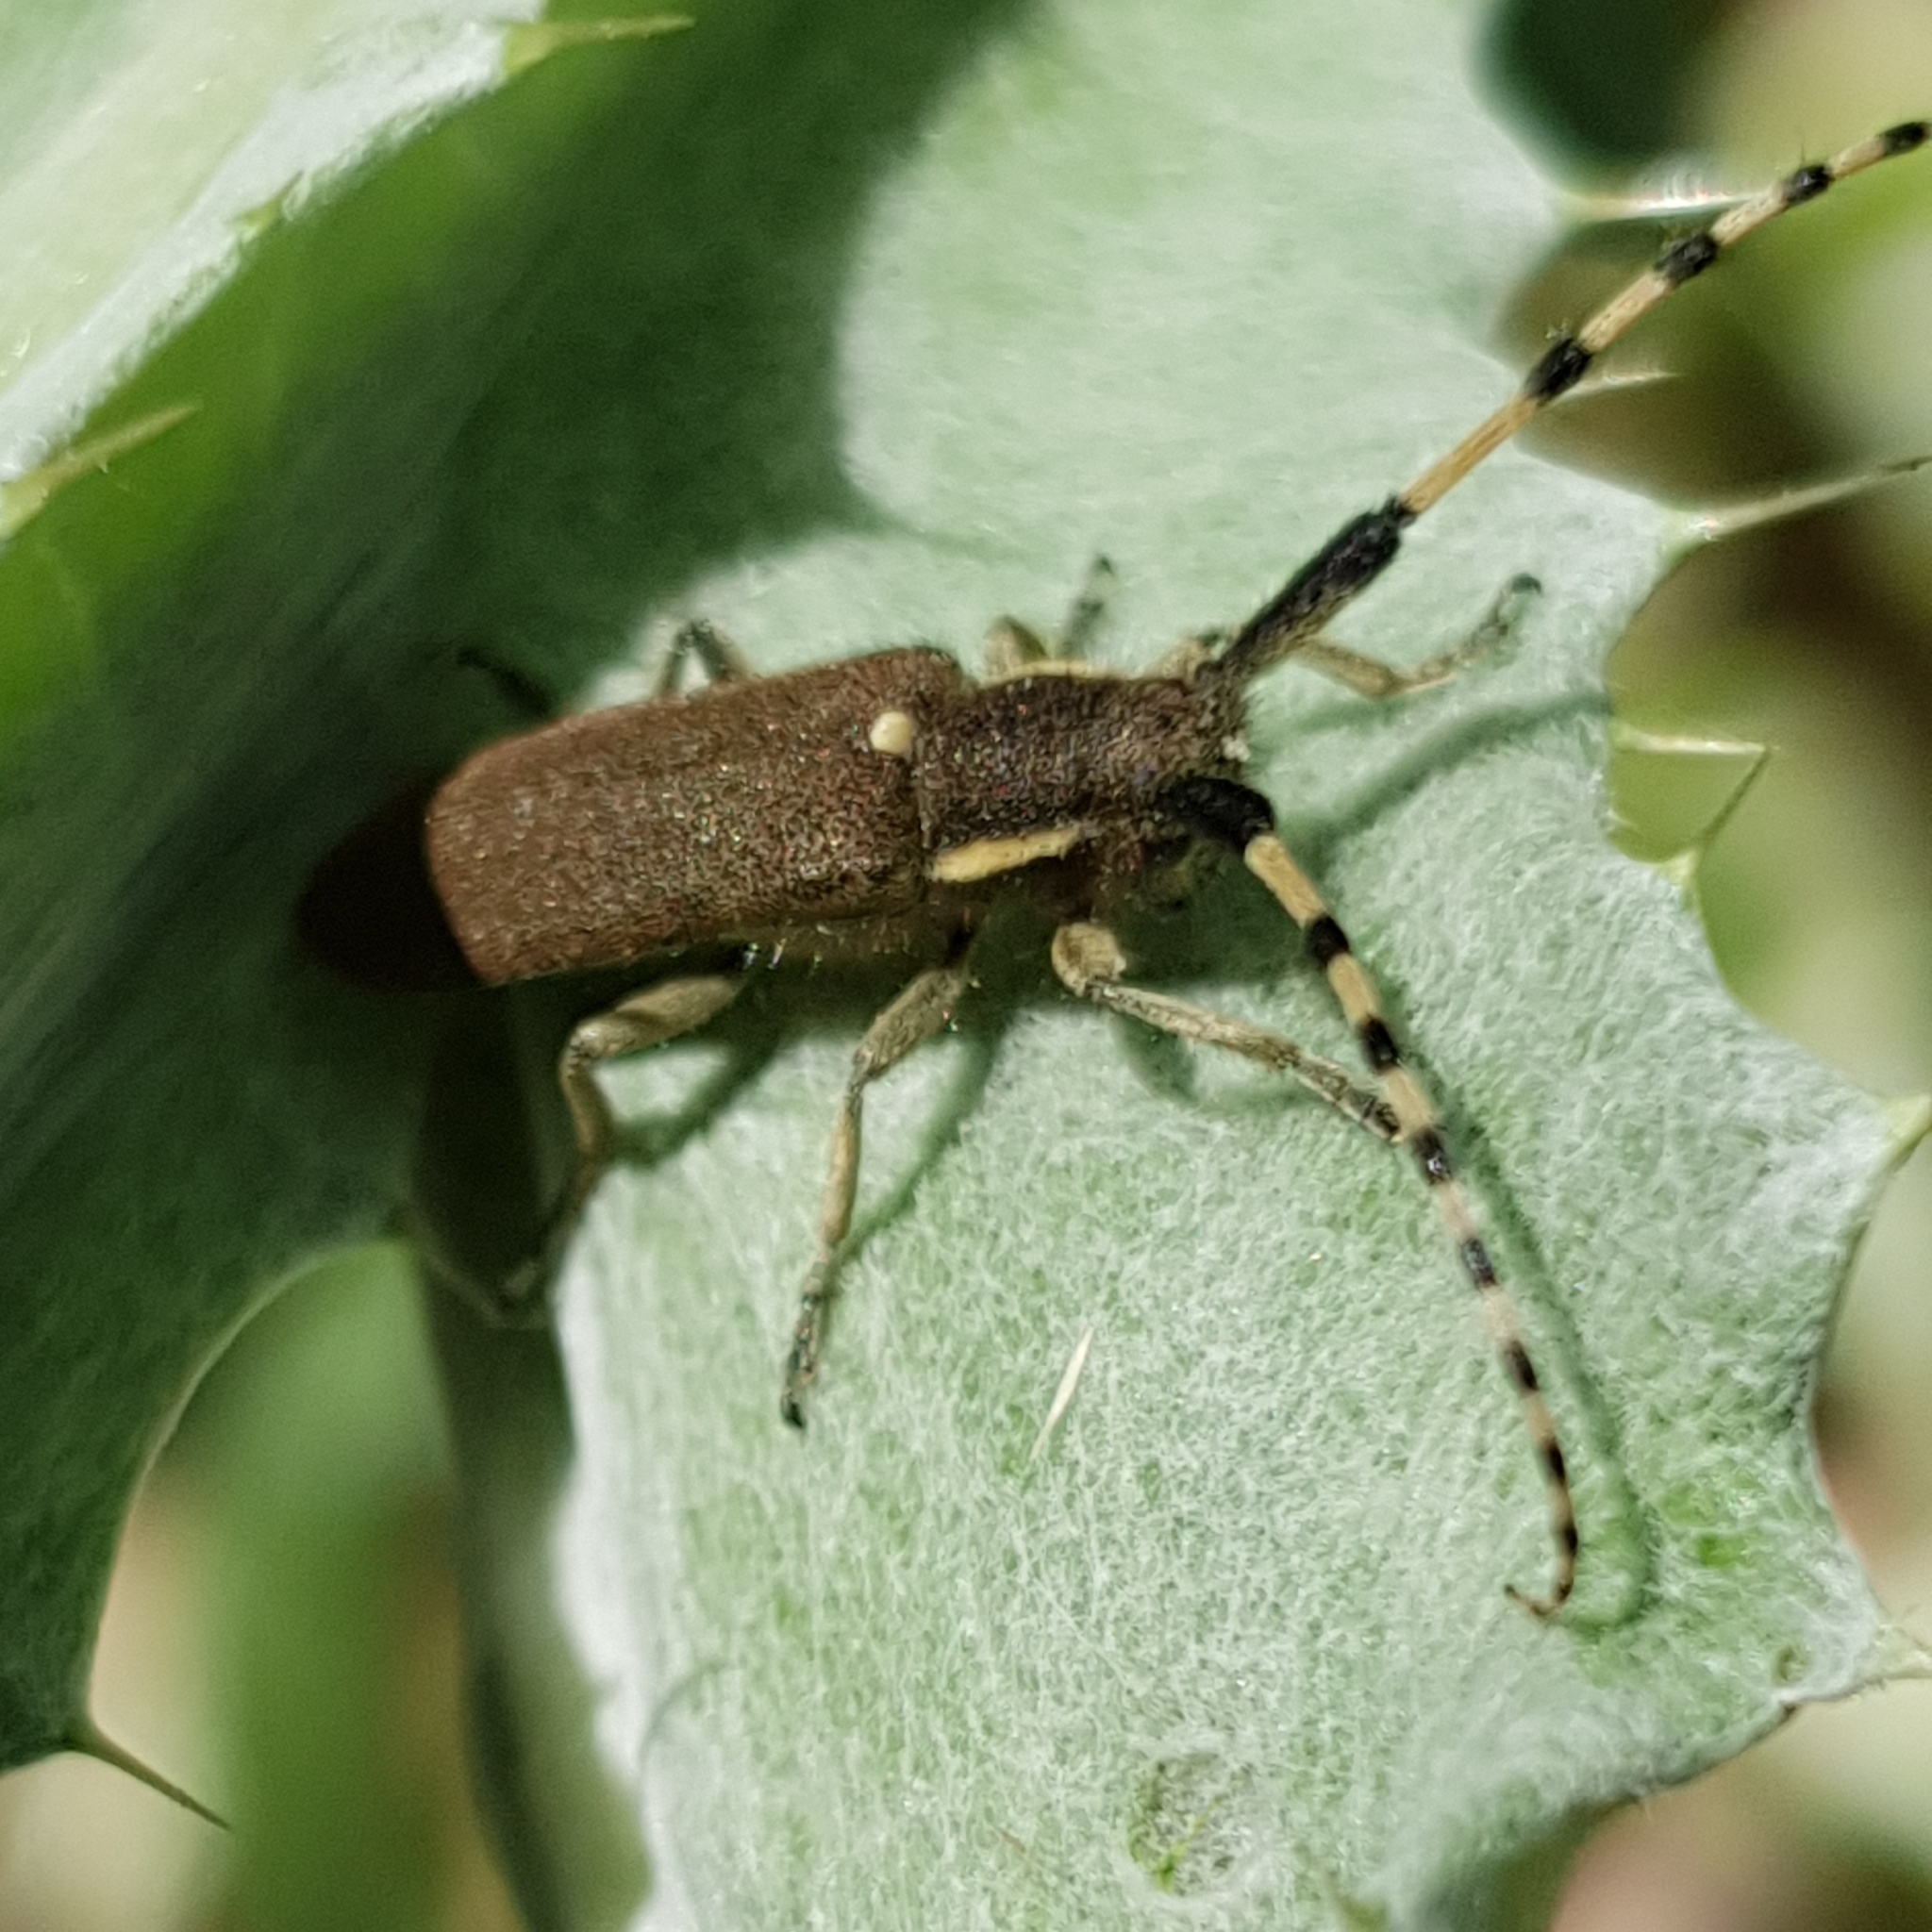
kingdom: Animalia
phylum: Arthropoda
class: Insecta
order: Coleoptera
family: Cerambycidae
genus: Agapanthia
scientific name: Agapanthia annularis
